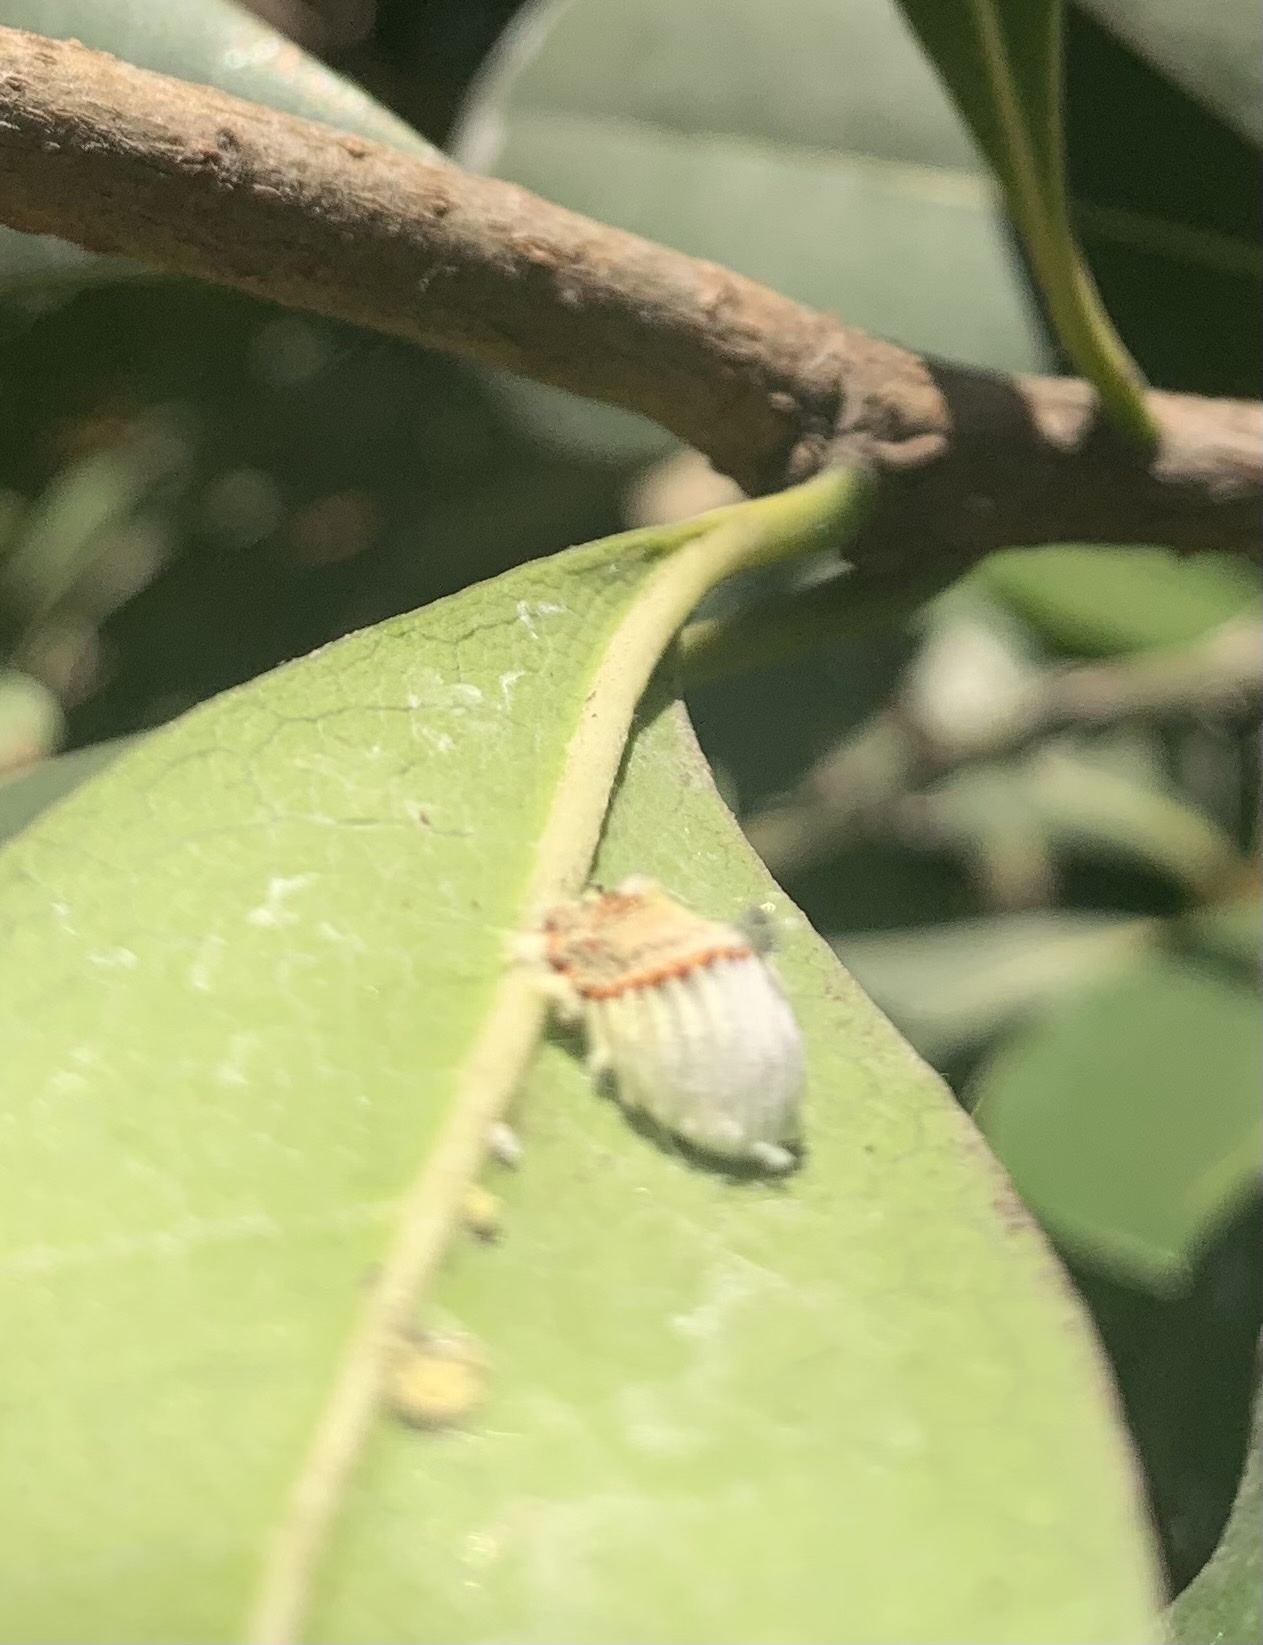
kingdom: Animalia
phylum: Arthropoda
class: Insecta
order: Hemiptera
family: Margarodidae
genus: Icerya
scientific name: Icerya purchasi
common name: Cottony cushion scale
